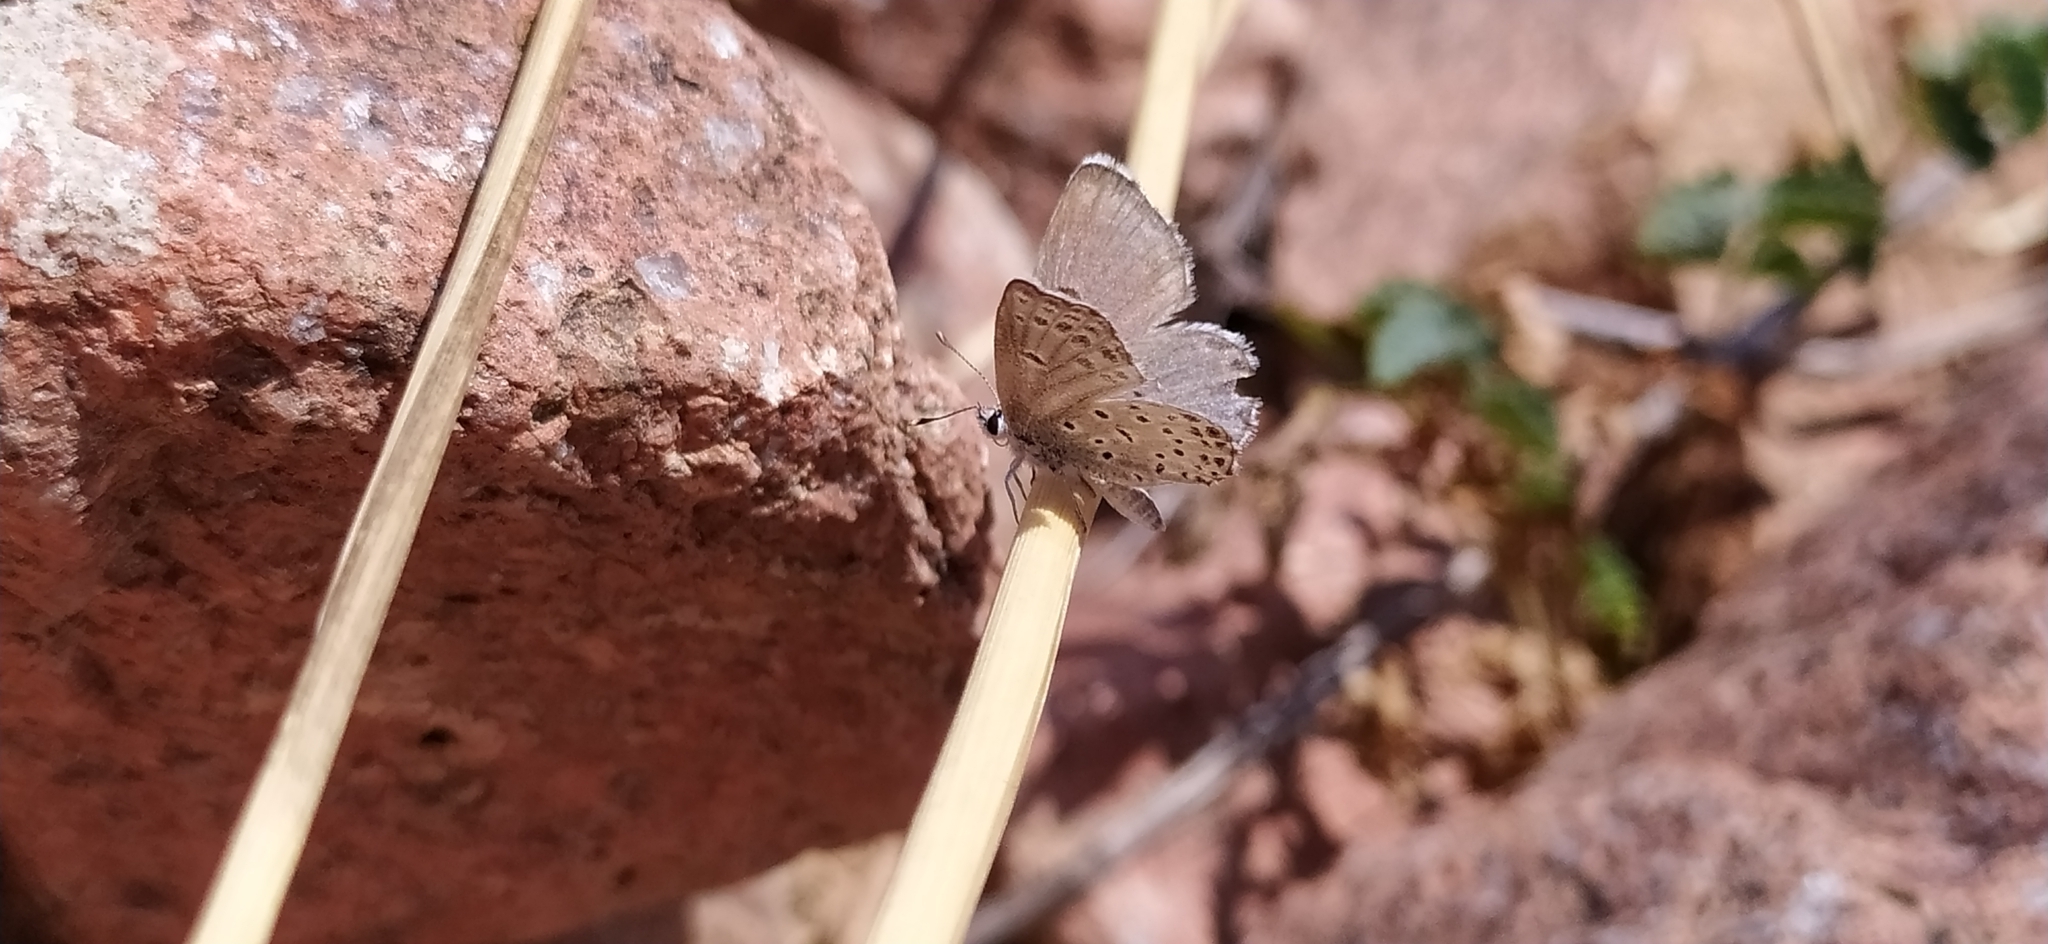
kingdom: Animalia
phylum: Arthropoda
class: Insecta
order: Lepidoptera
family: Lycaenidae
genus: Pseudophilotes
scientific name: Pseudophilotes
